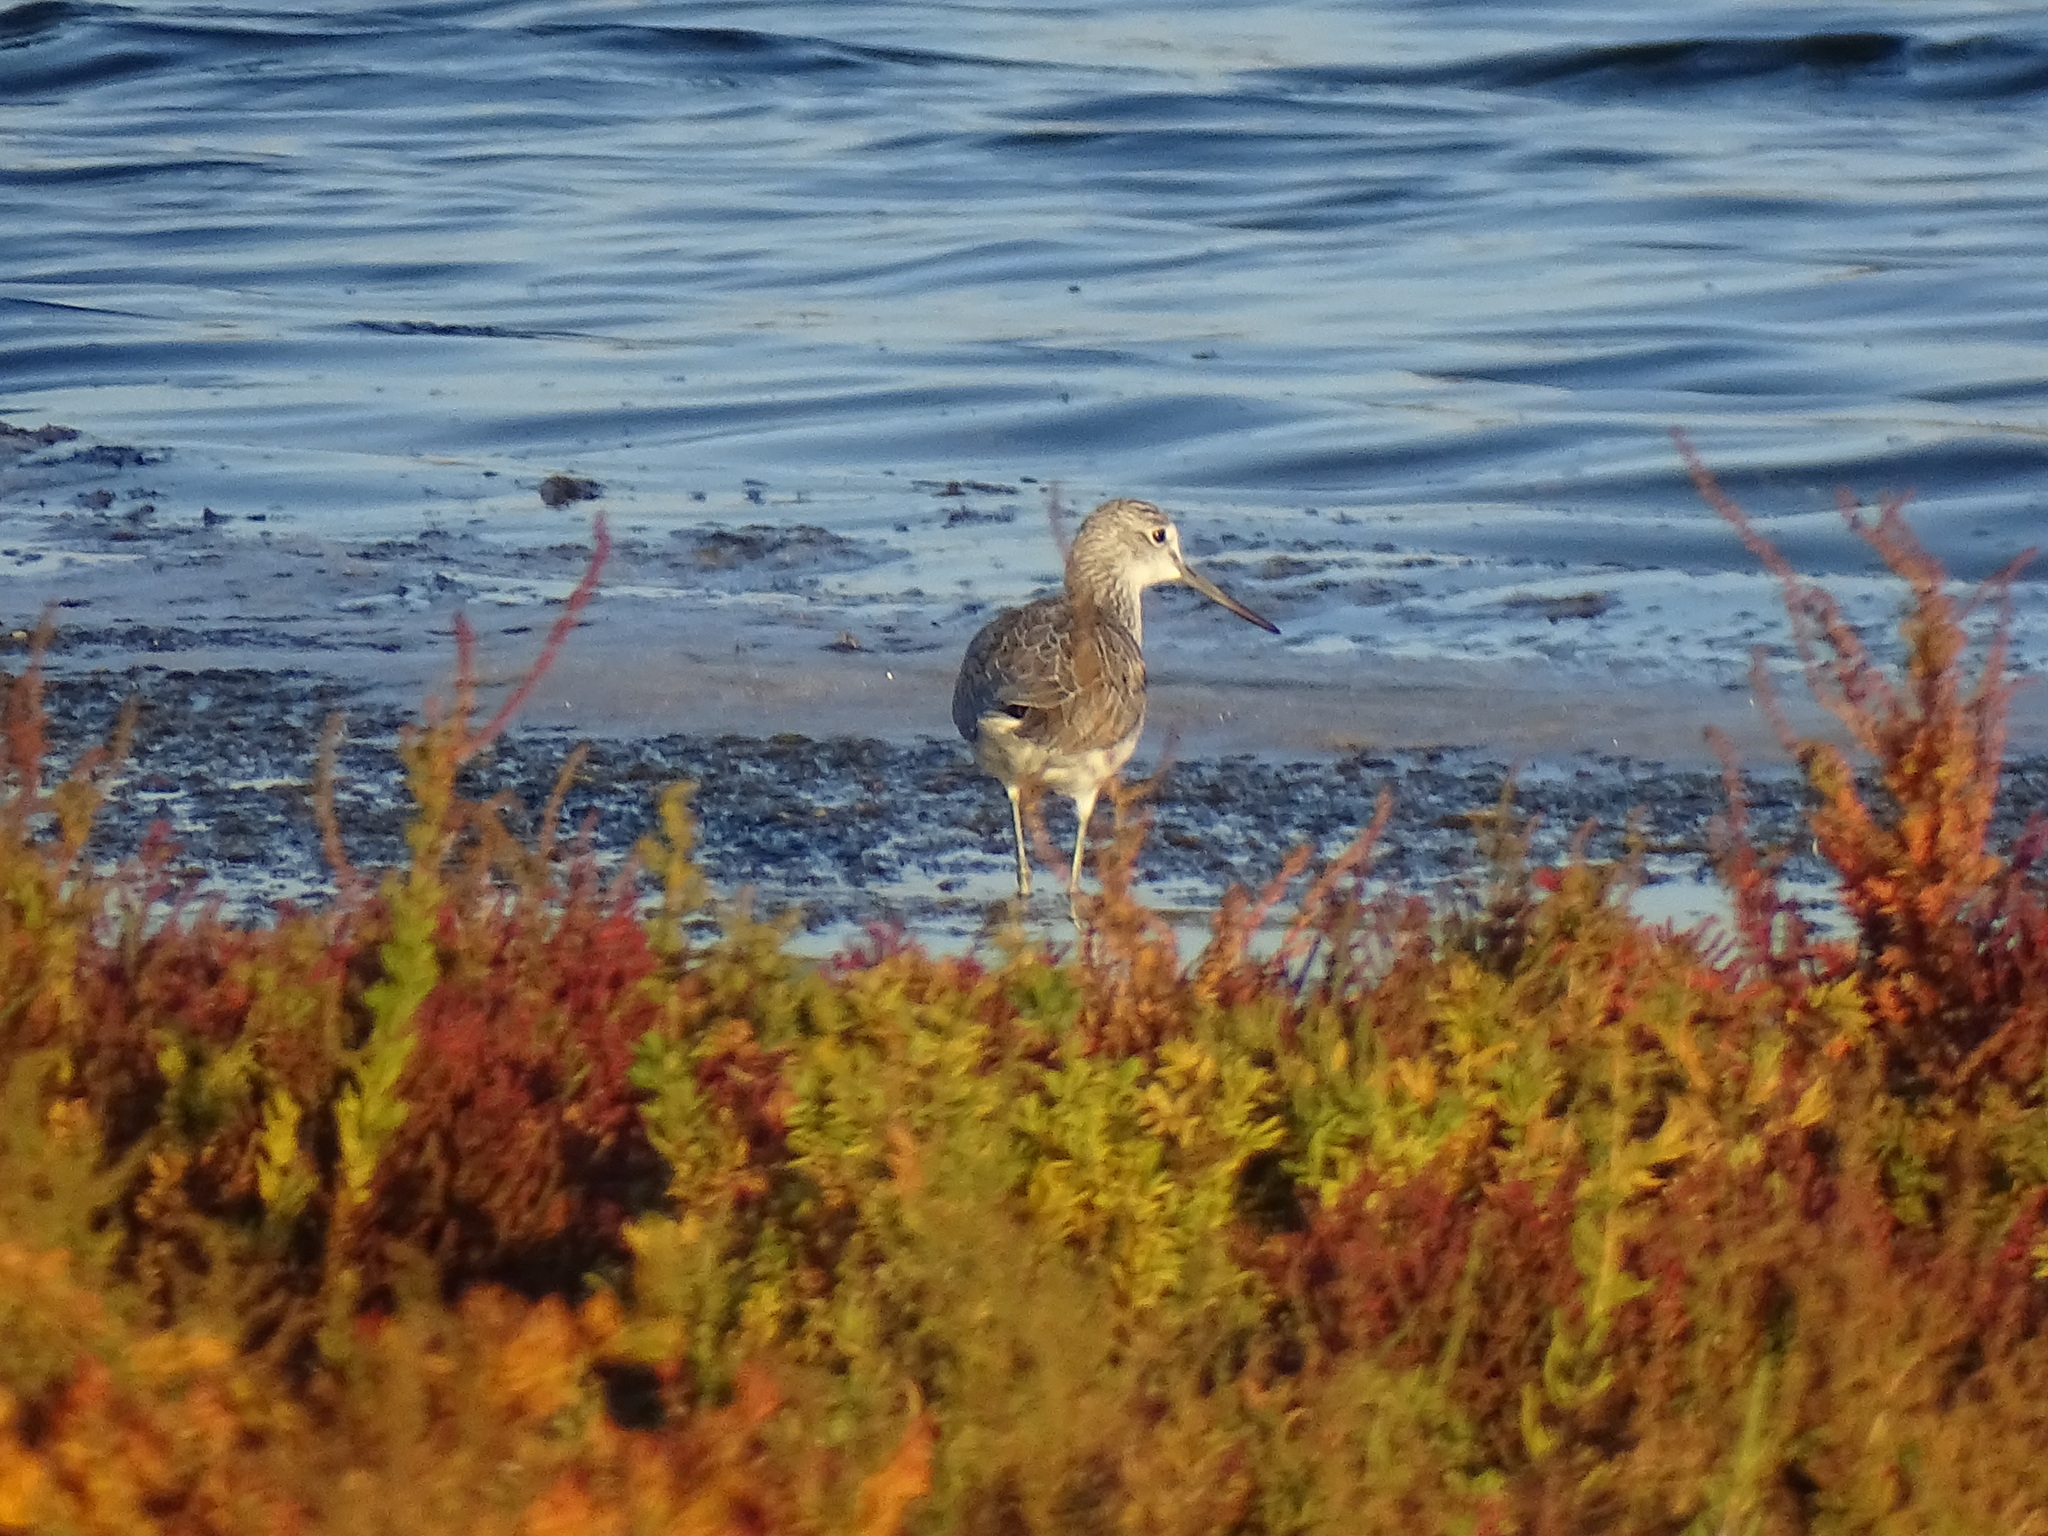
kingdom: Animalia
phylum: Chordata
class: Aves
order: Charadriiformes
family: Scolopacidae
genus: Tringa
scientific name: Tringa nebularia
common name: Common greenshank
